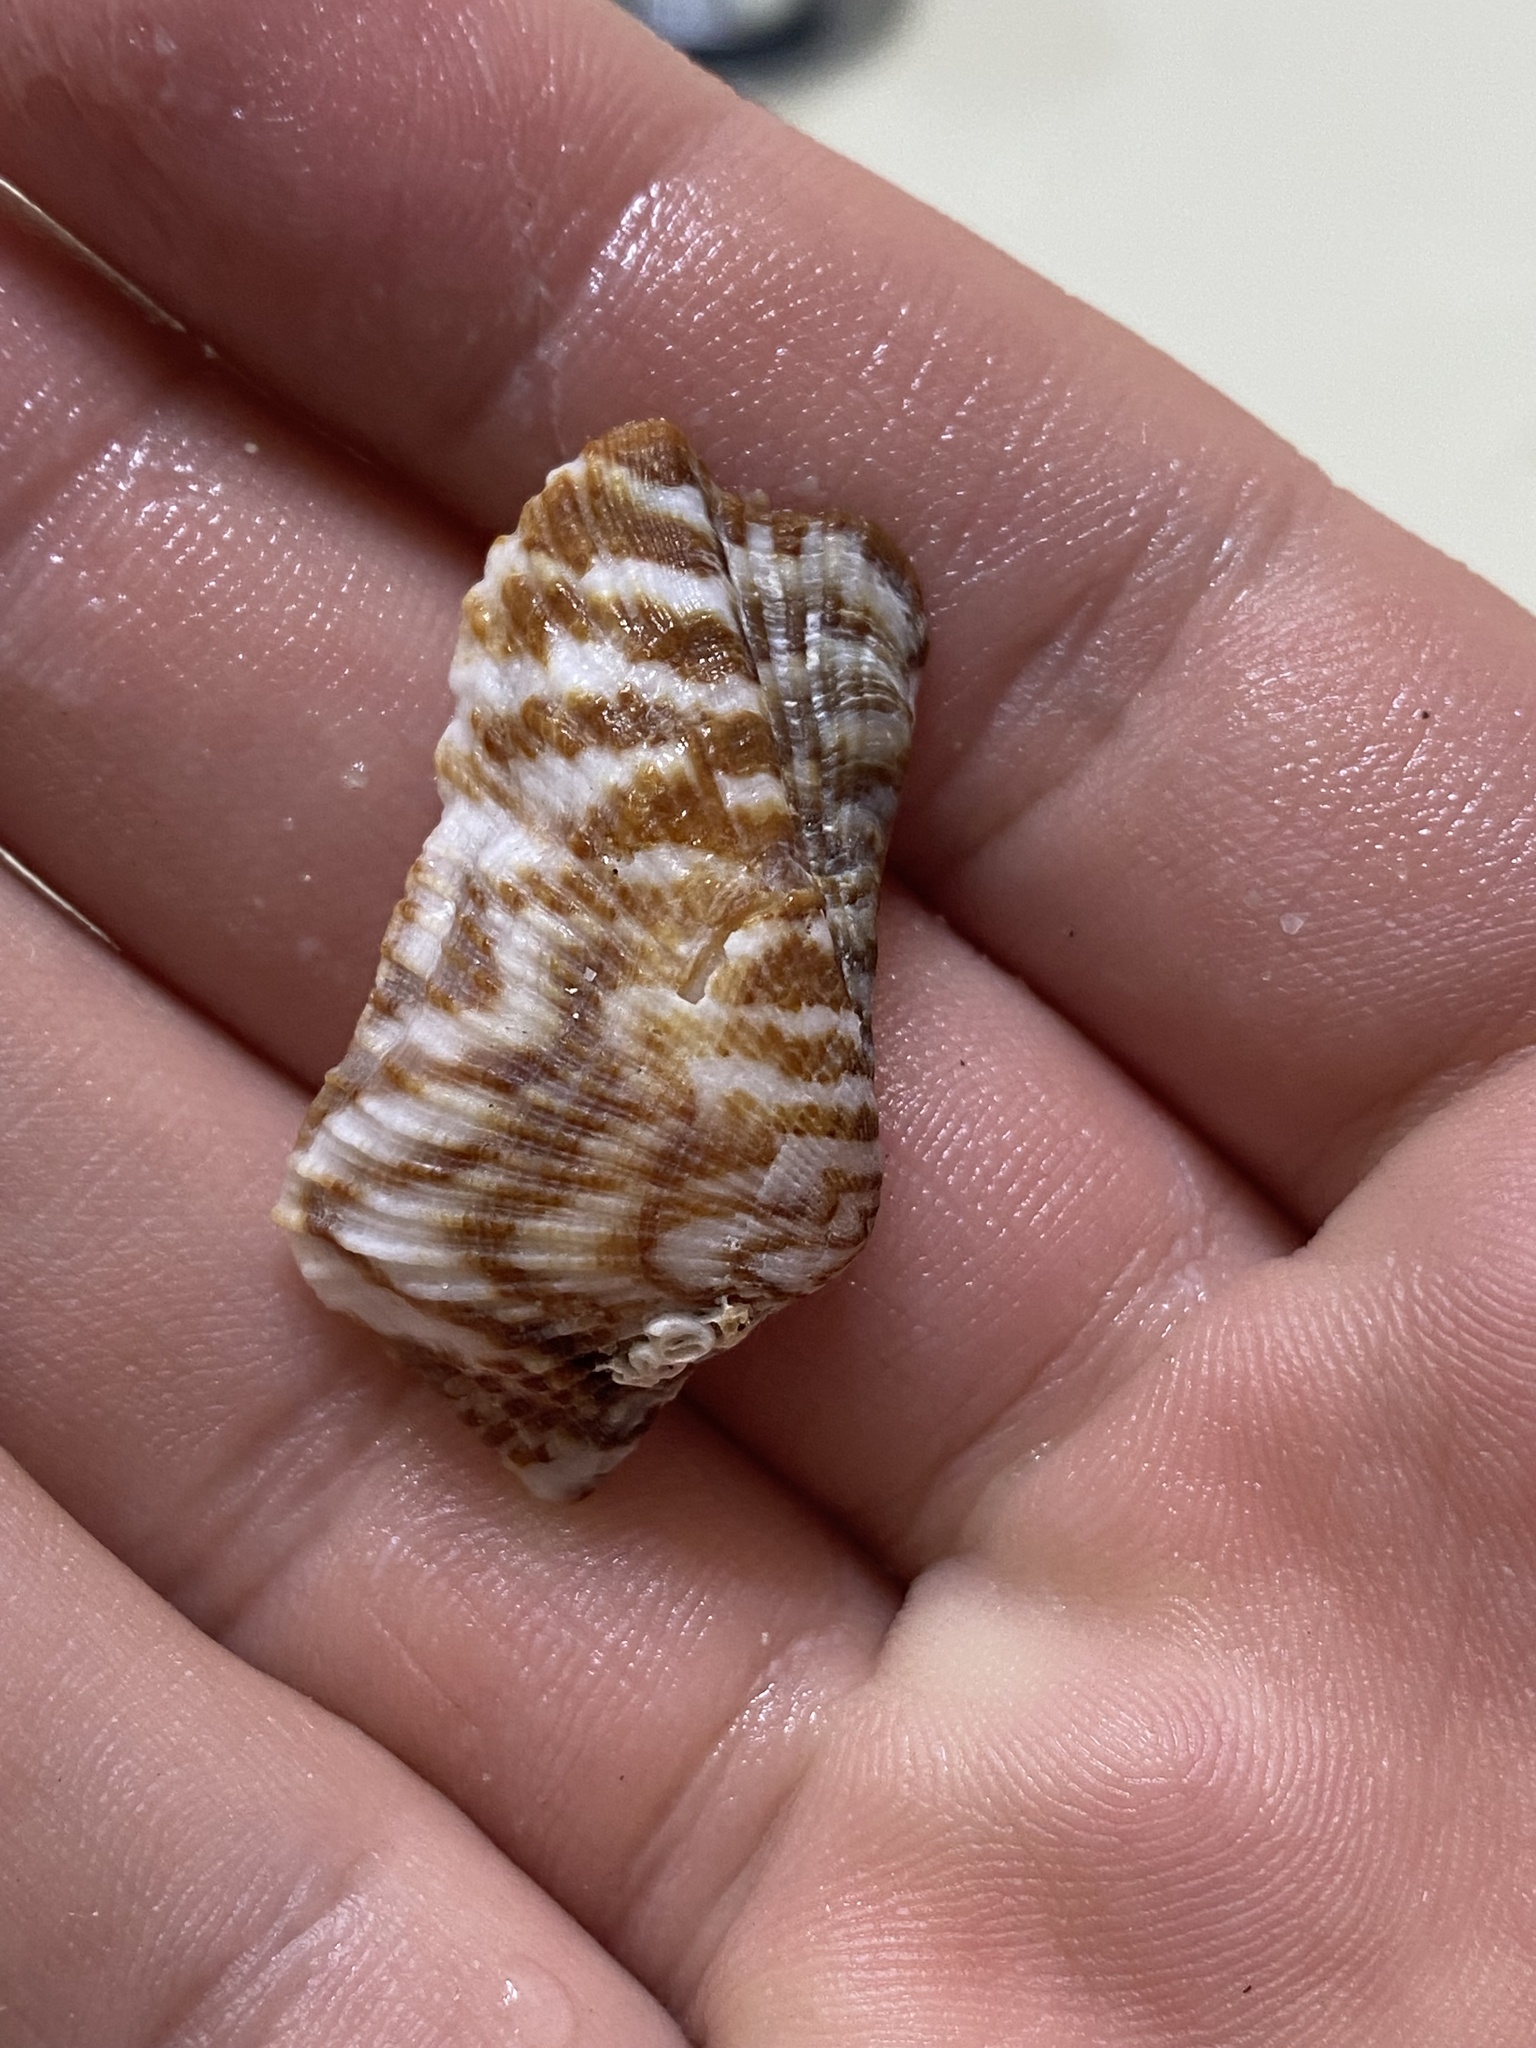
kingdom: Animalia
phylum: Mollusca
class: Bivalvia
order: Arcida
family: Arcidae
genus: Arca
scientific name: Arca pacifica
